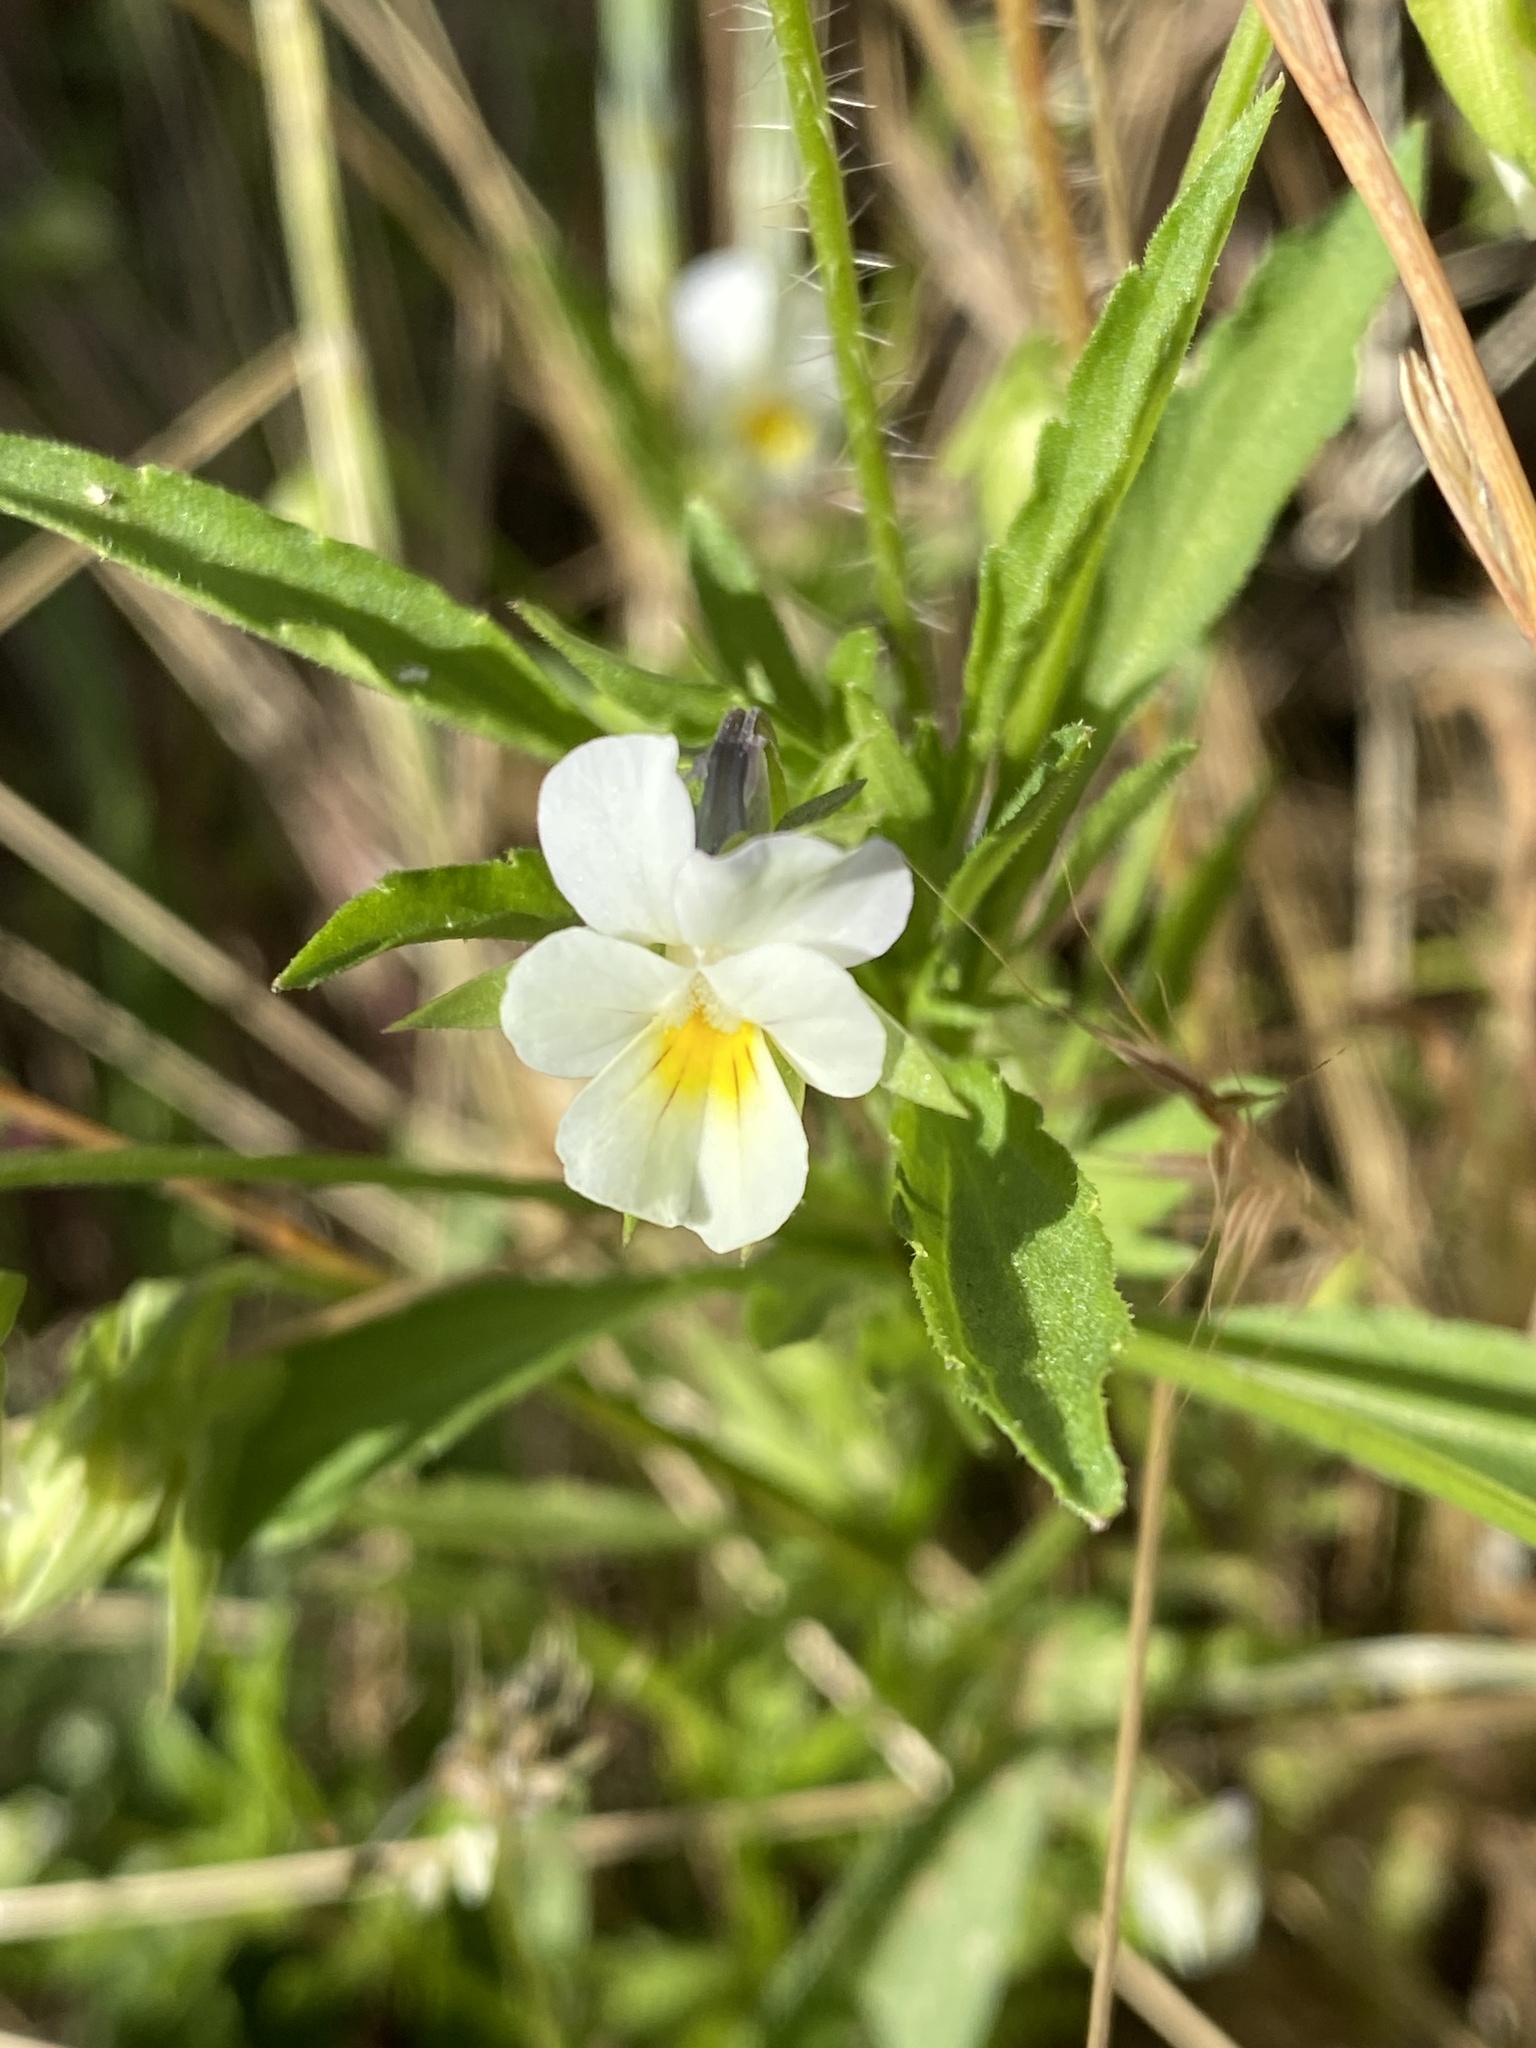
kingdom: Plantae
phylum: Tracheophyta
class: Magnoliopsida
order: Malpighiales
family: Violaceae
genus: Viola
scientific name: Viola arvensis
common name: Field pansy
